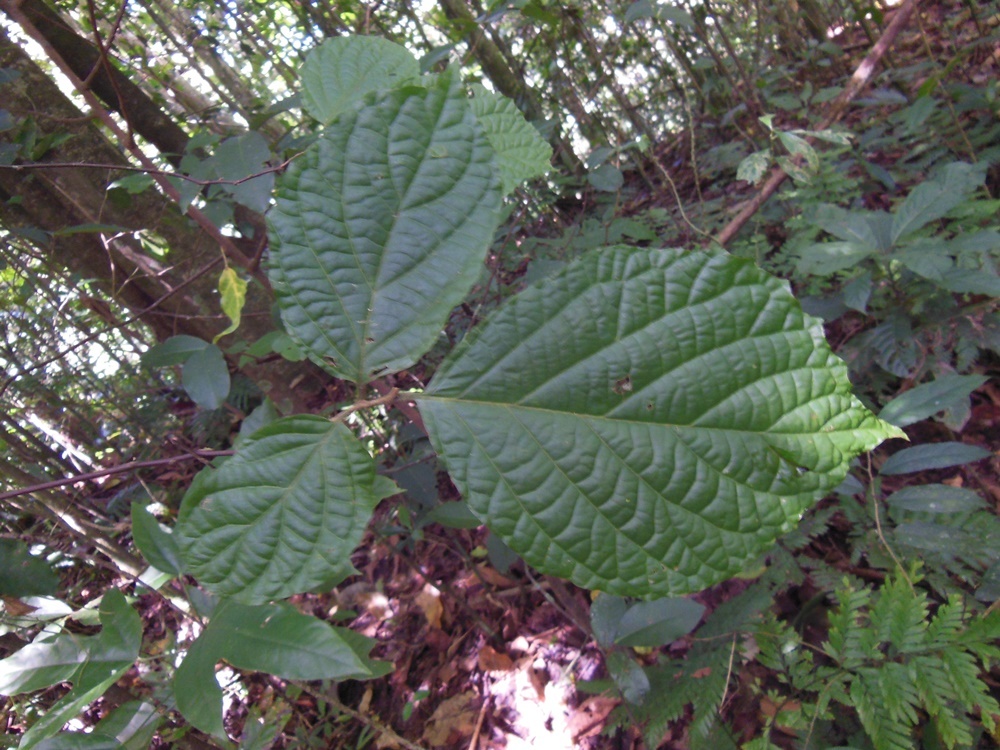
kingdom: Plantae
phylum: Tracheophyta
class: Magnoliopsida
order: Ericales
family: Styracaceae
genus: Styrax
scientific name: Styrax glabrescens
